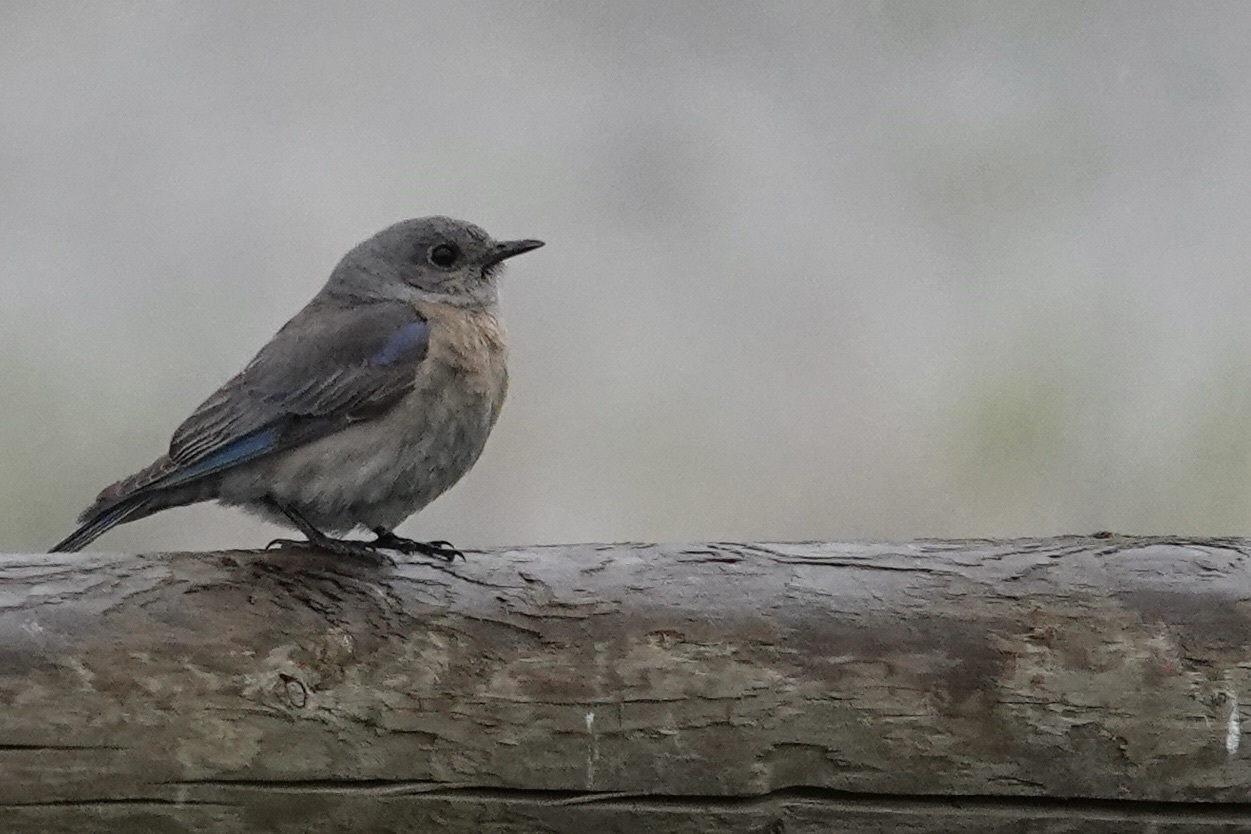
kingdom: Animalia
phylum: Chordata
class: Aves
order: Passeriformes
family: Turdidae
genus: Sialia
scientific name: Sialia mexicana
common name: Western bluebird
